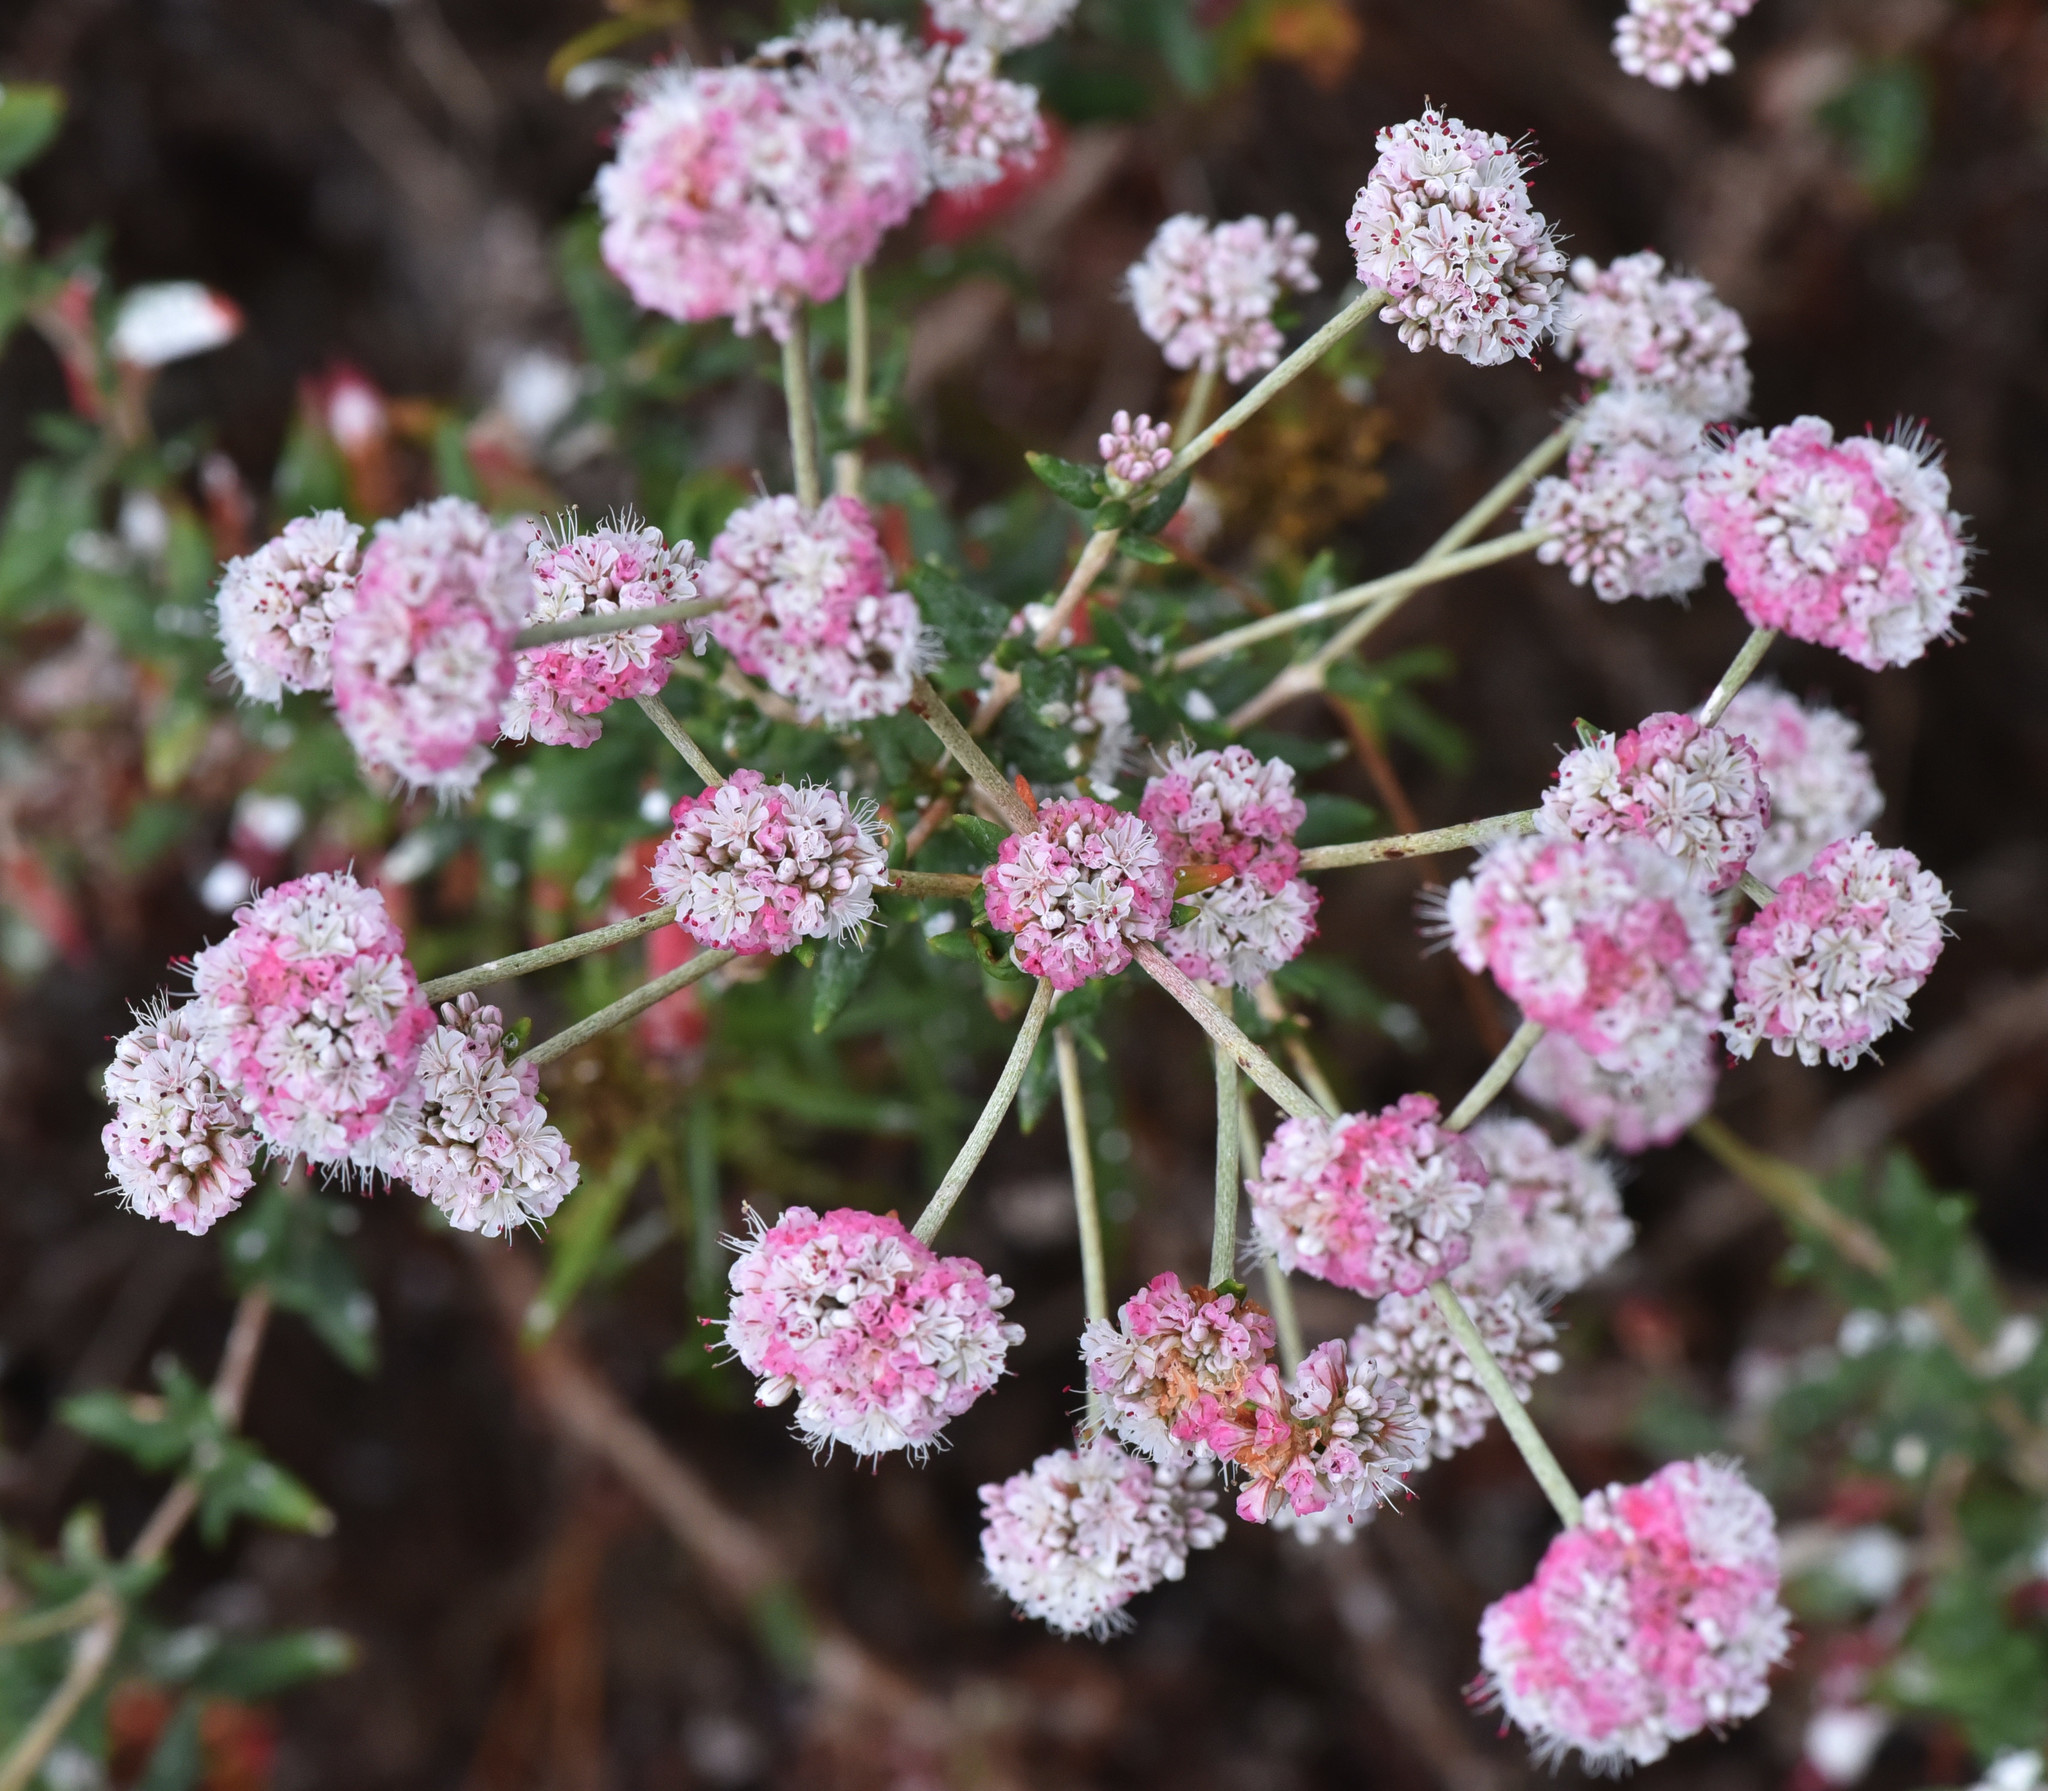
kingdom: Plantae
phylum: Tracheophyta
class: Magnoliopsida
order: Caryophyllales
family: Polygonaceae
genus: Eriogonum
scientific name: Eriogonum parvifolium
